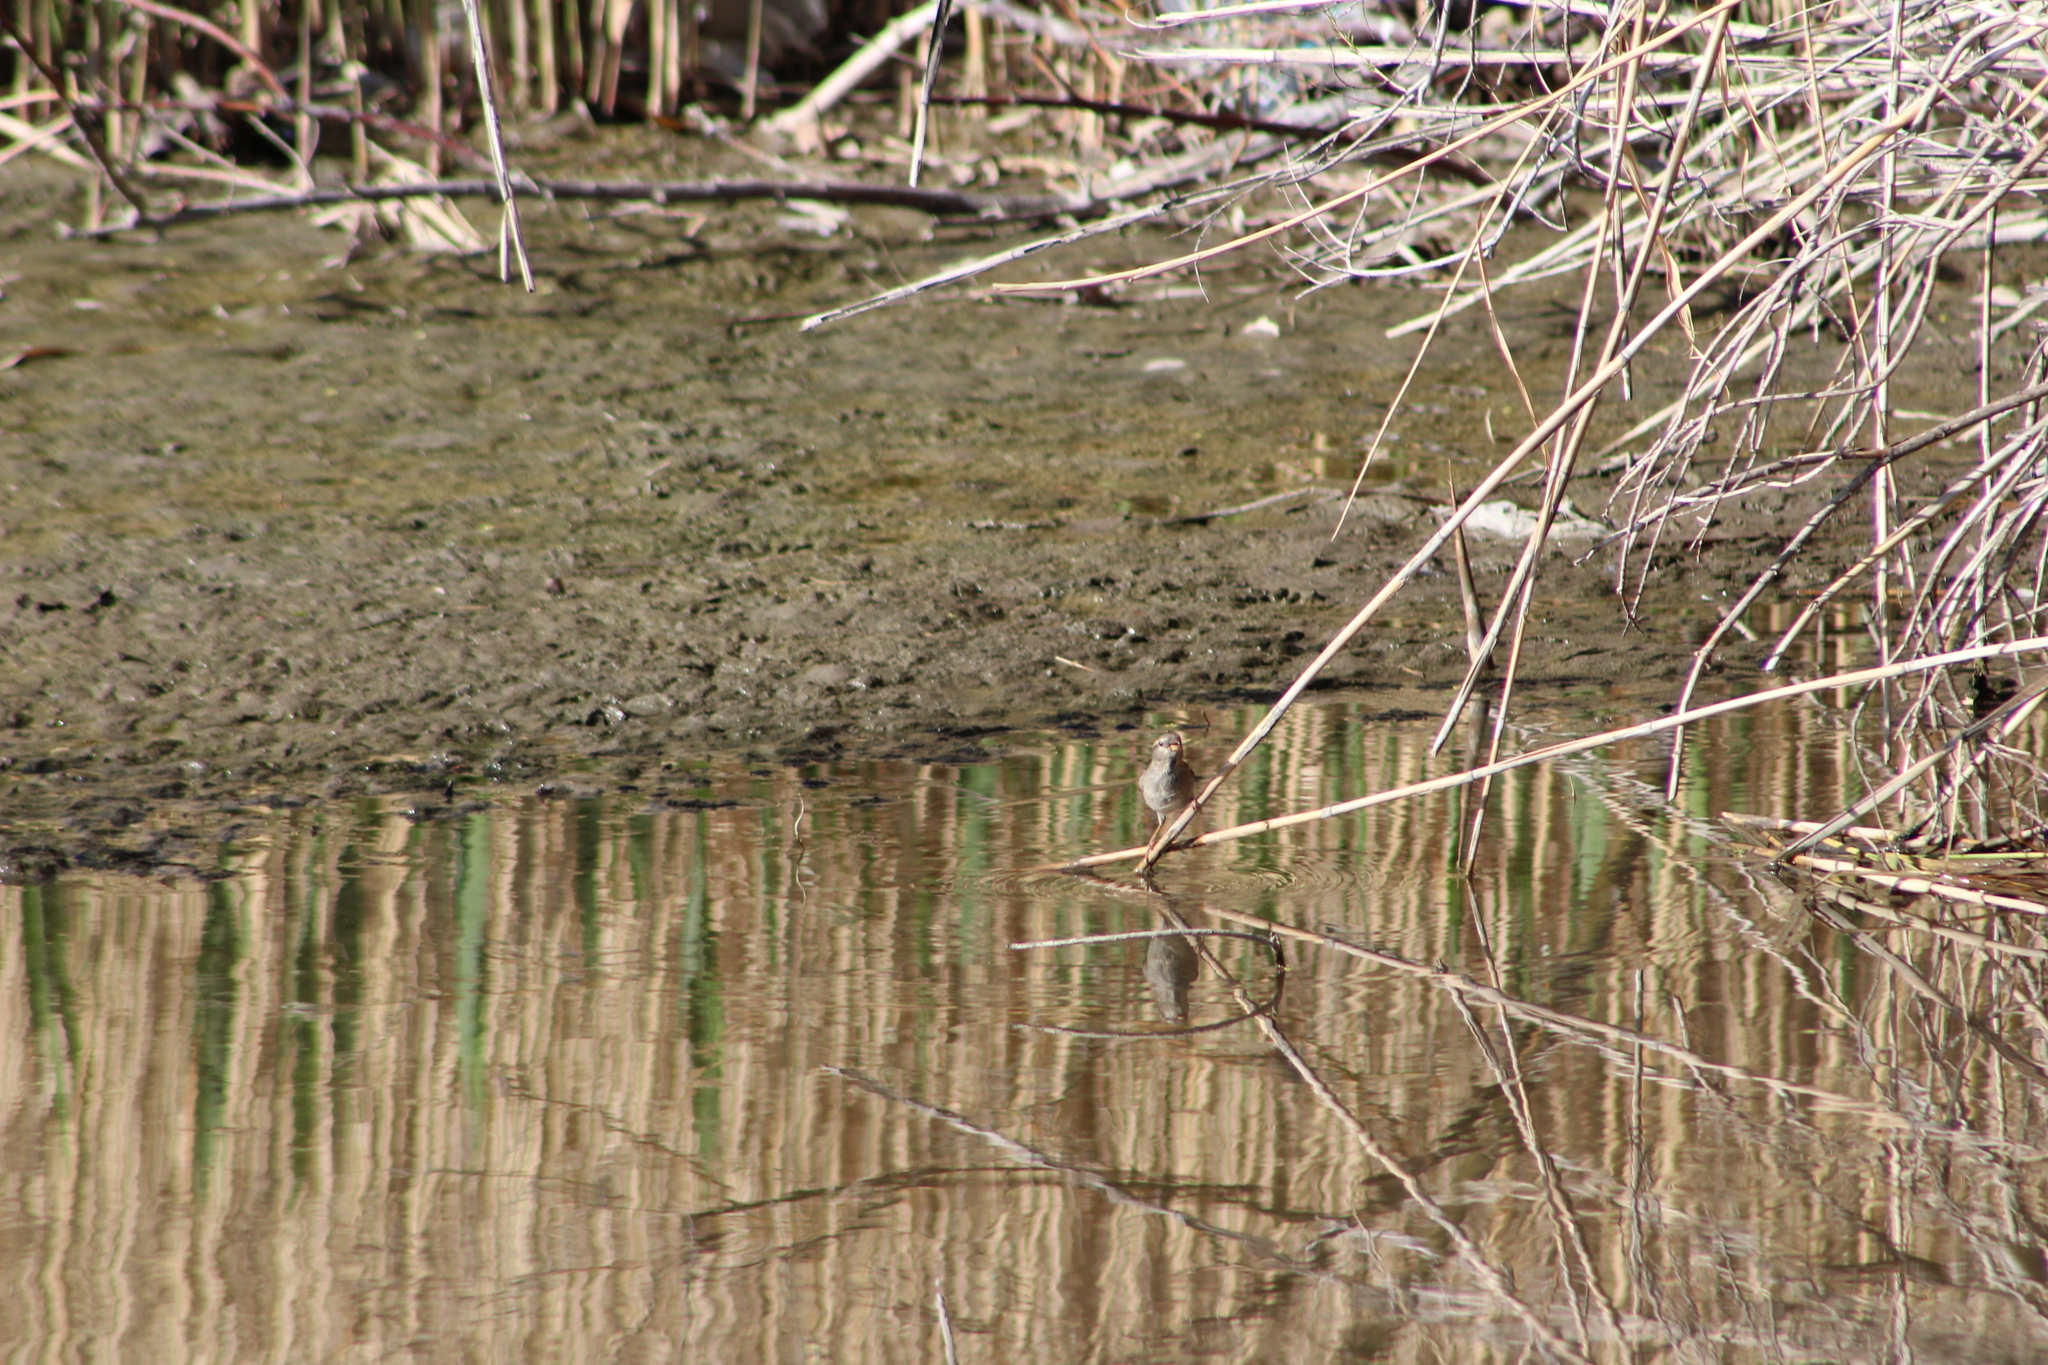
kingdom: Animalia
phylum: Chordata
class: Aves
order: Passeriformes
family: Passeridae
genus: Passer
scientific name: Passer domesticus
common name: House sparrow
